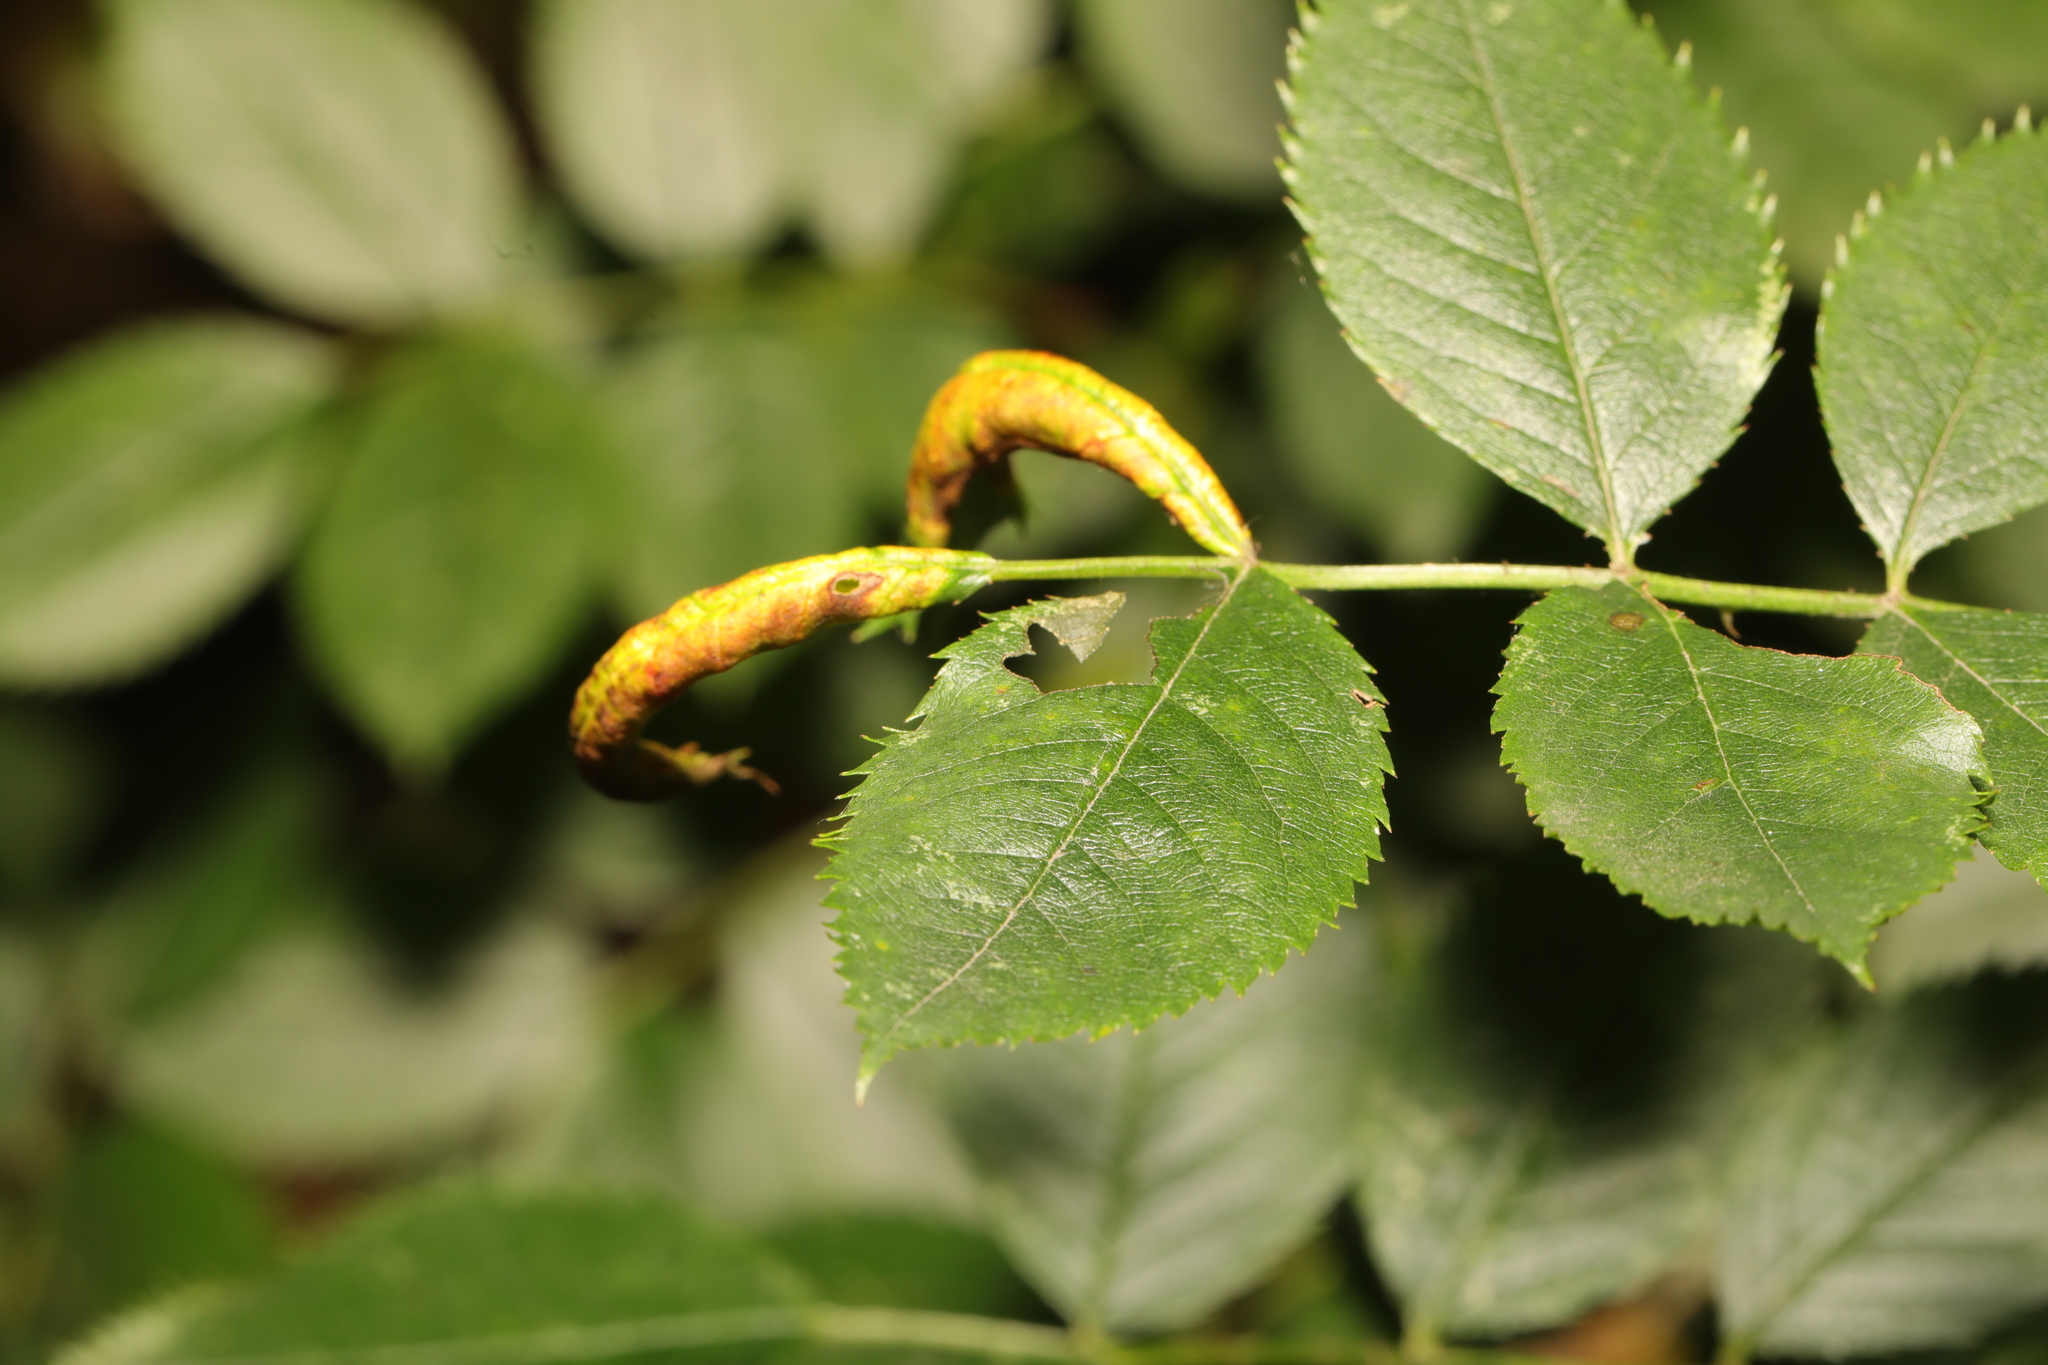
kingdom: Animalia
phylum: Arthropoda
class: Insecta
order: Hymenoptera
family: Tenthredinidae
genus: Blennocampa
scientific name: Blennocampa phyllocolpa
